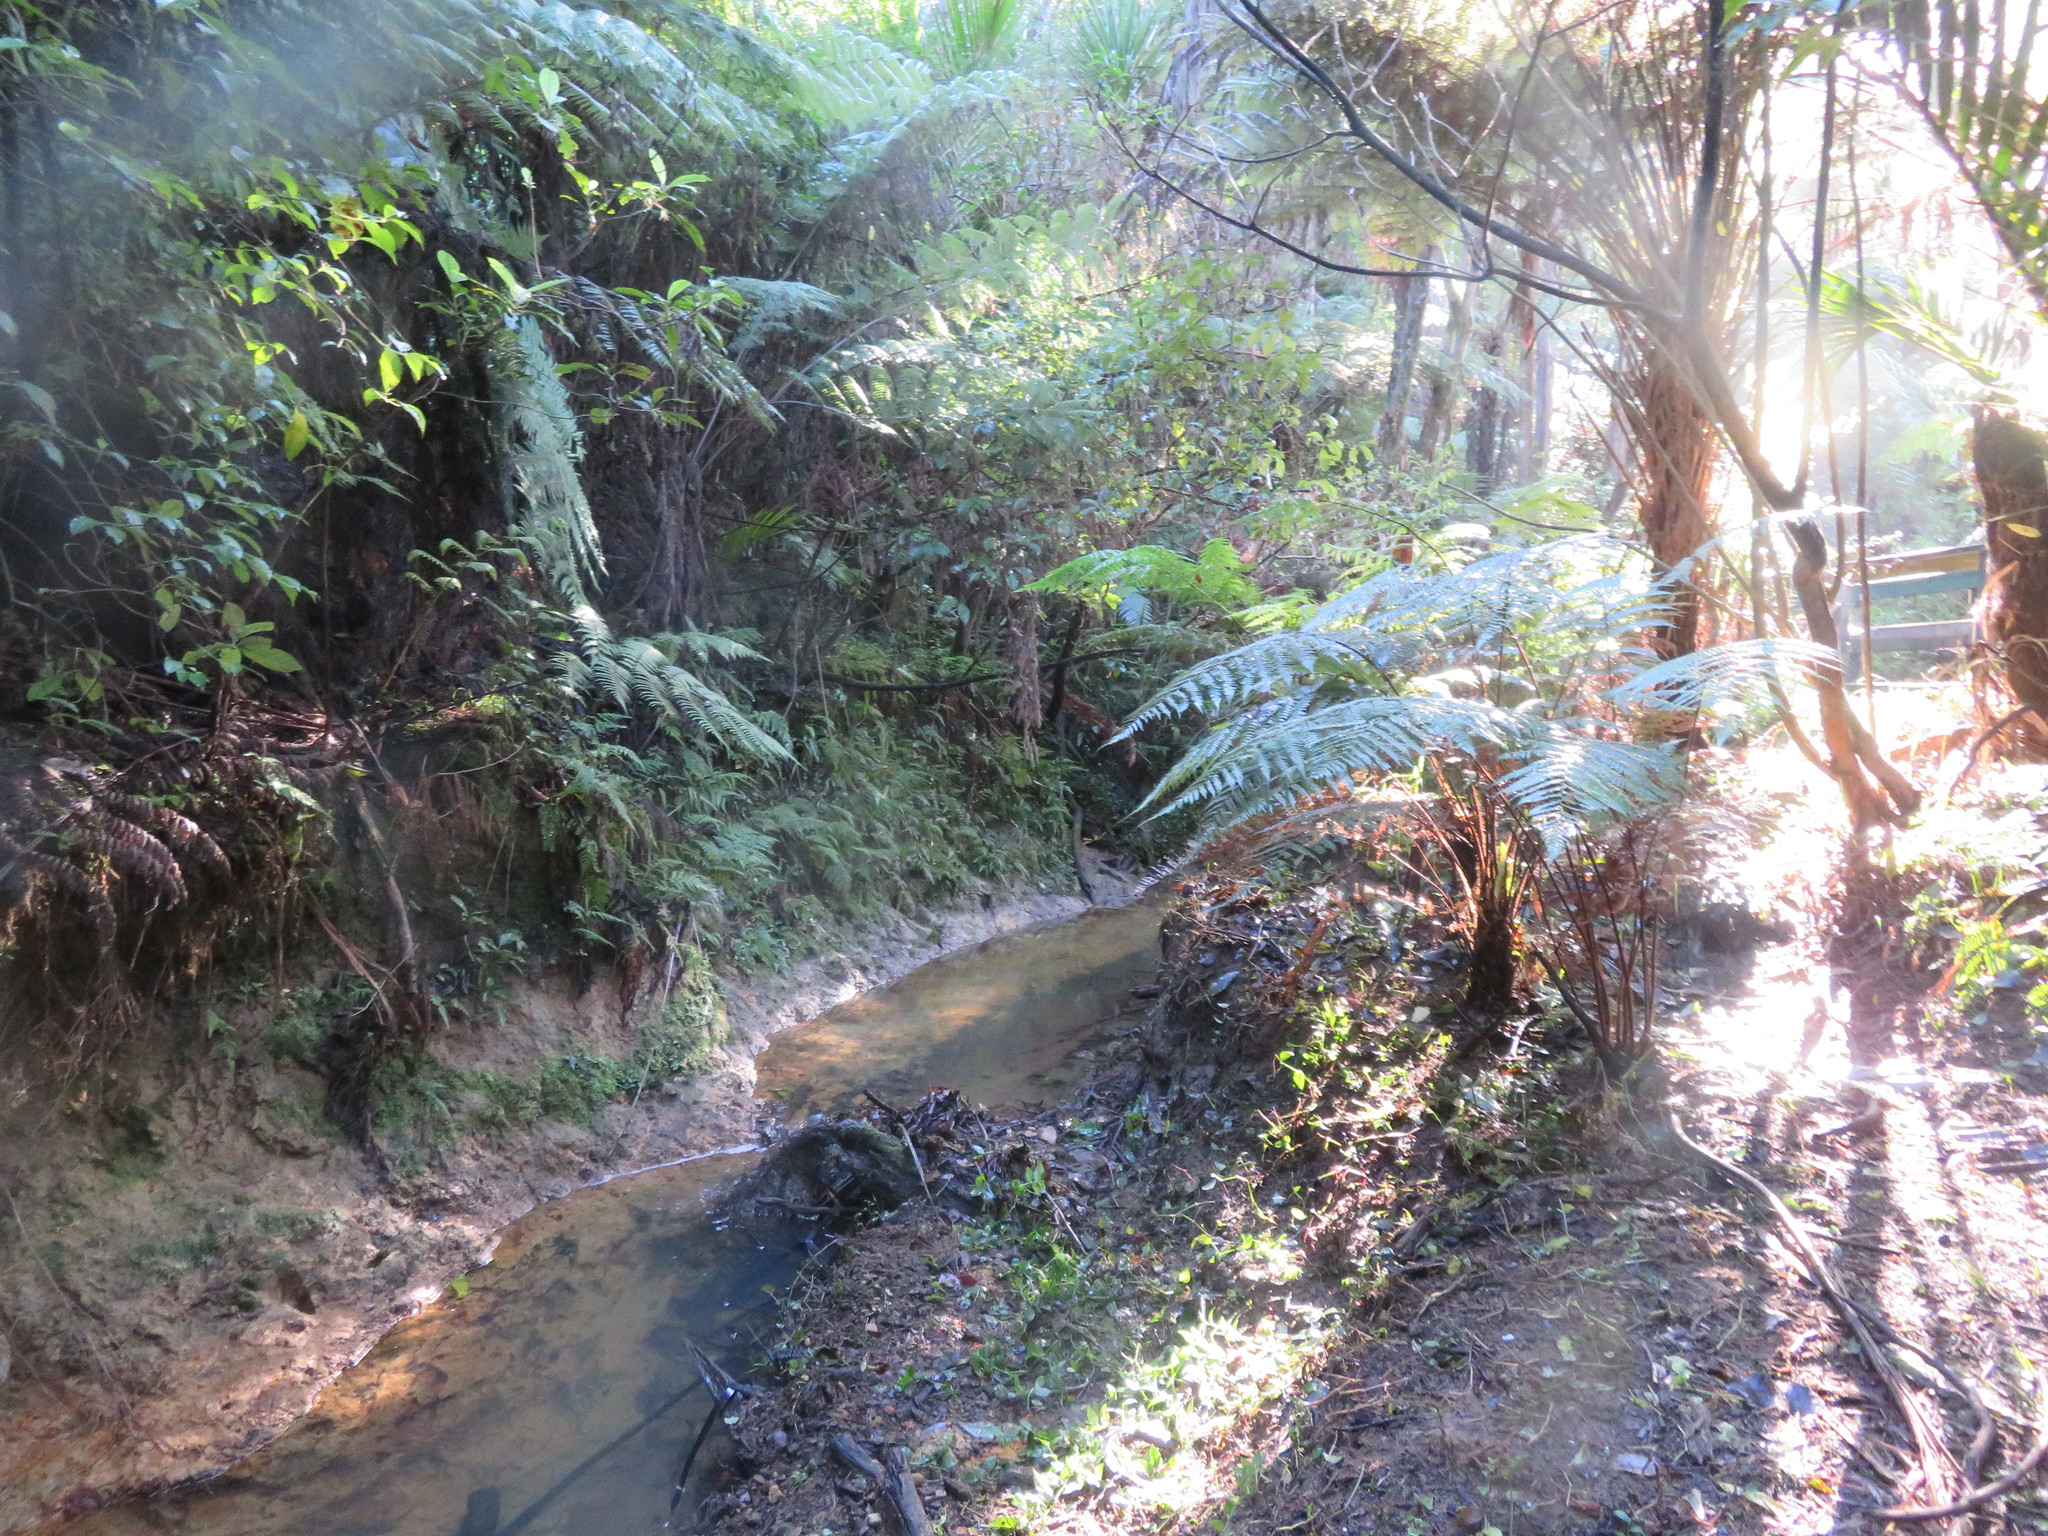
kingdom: Plantae
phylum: Tracheophyta
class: Liliopsida
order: Commelinales
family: Commelinaceae
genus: Tradescantia
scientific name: Tradescantia fluminensis
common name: Wandering-jew
